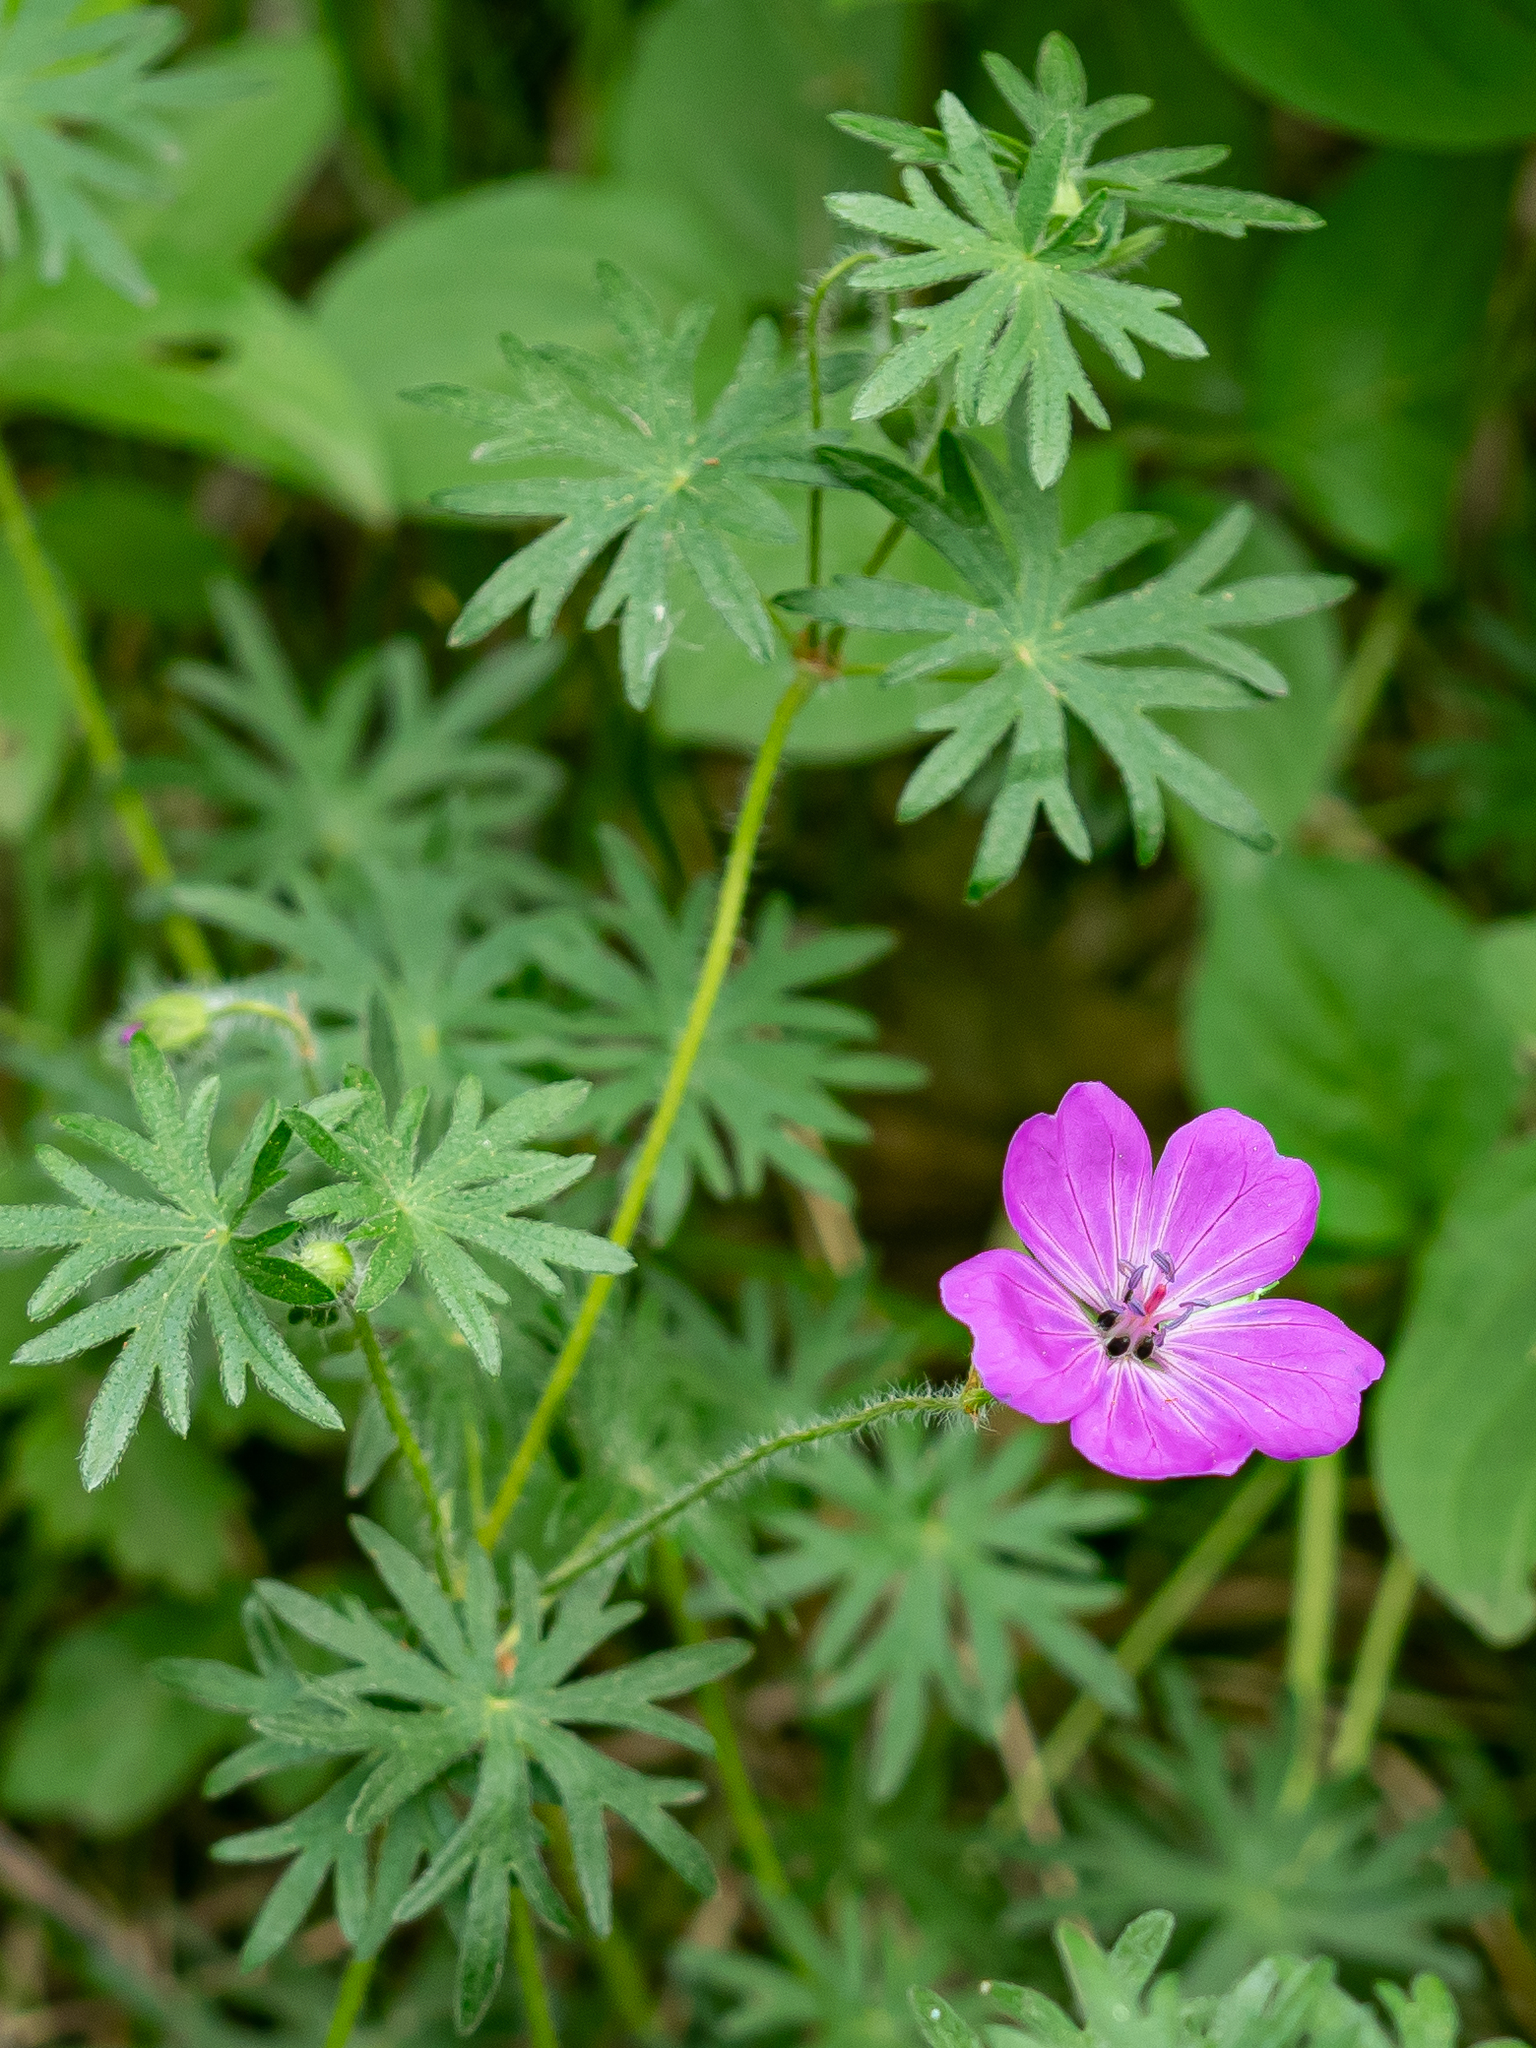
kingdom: Plantae
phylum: Tracheophyta
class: Magnoliopsida
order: Geraniales
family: Geraniaceae
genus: Geranium
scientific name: Geranium sanguineum
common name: Bloody crane's-bill
